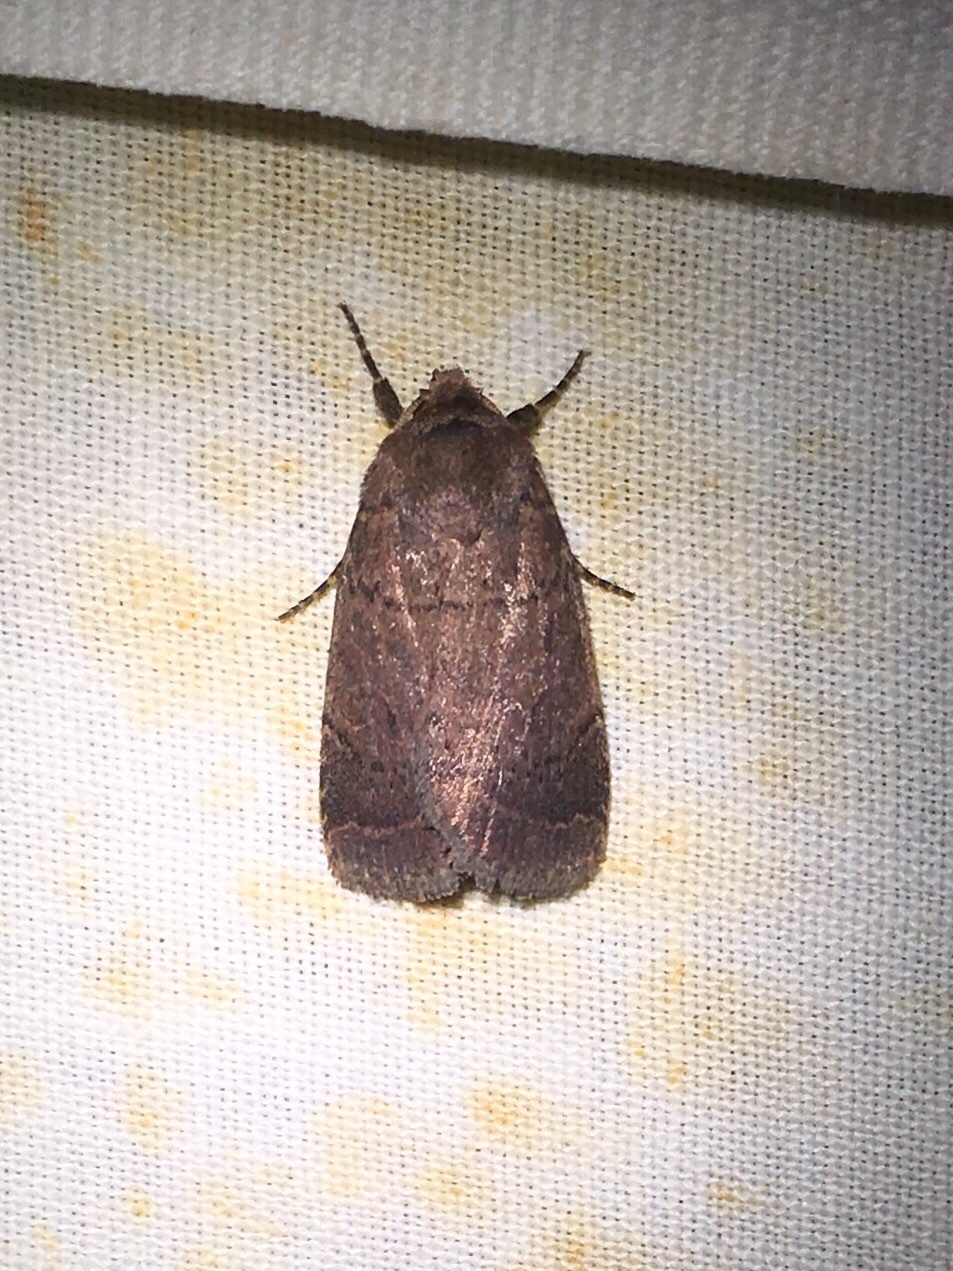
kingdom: Animalia
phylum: Arthropoda
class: Insecta
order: Lepidoptera
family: Noctuidae
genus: Orthodes
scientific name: Orthodes cynica
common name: Cynical quaker
